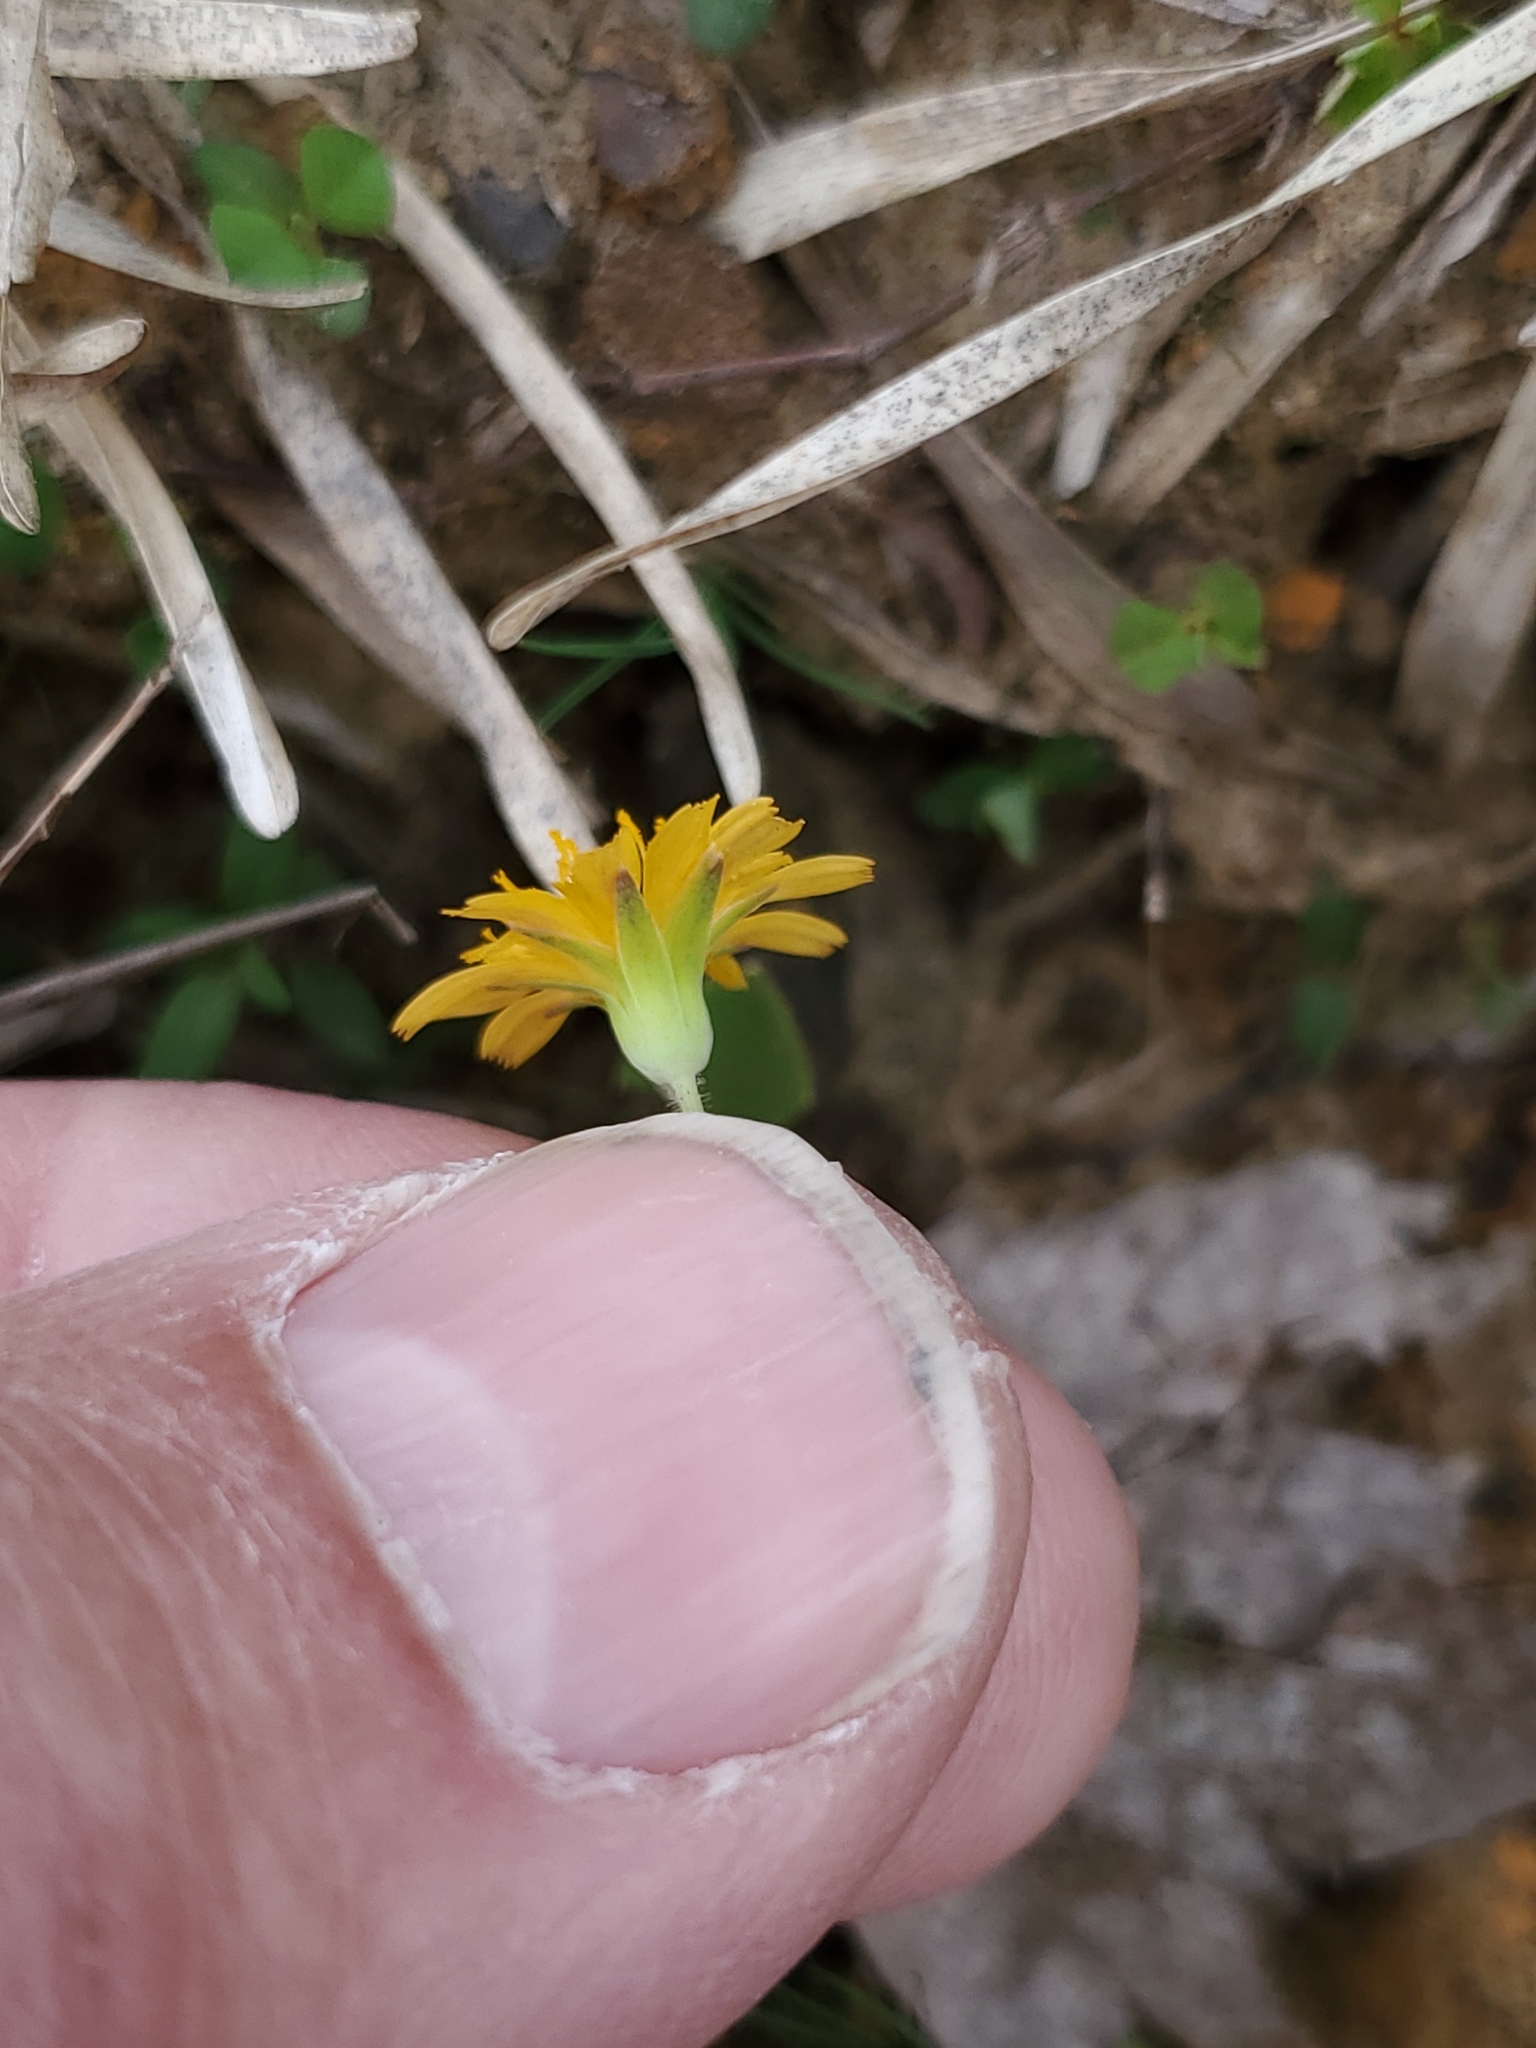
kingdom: Plantae
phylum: Tracheophyta
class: Magnoliopsida
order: Asterales
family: Asteraceae
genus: Krigia
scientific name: Krigia virginica
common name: Virginia dwarf-dandelion
